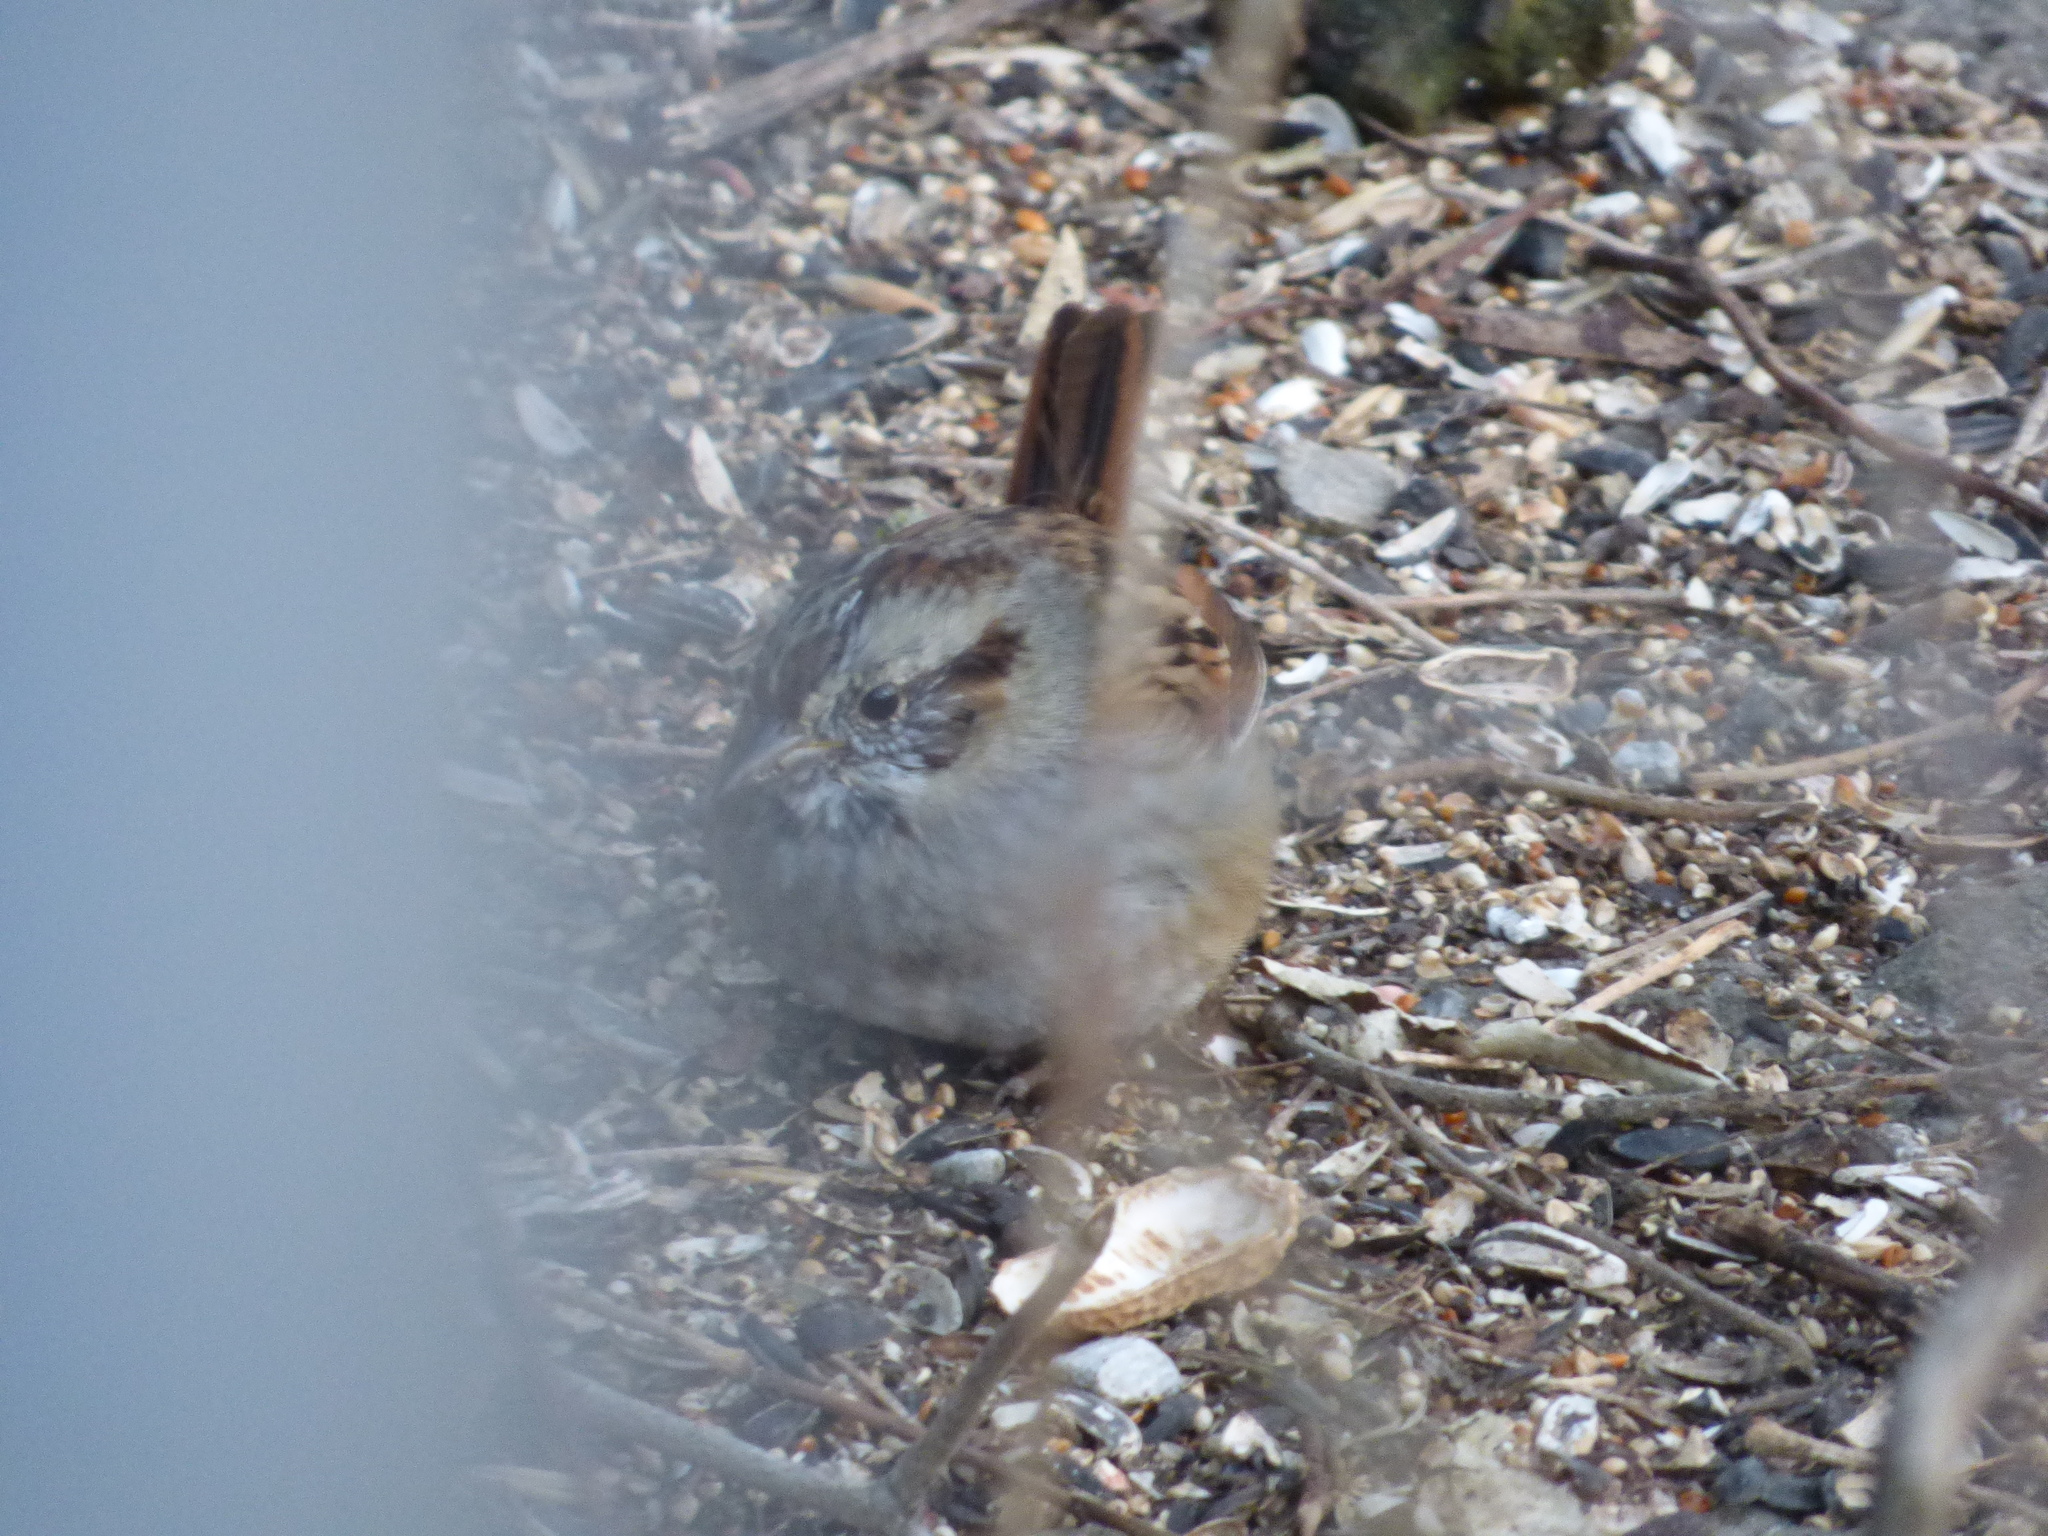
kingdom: Animalia
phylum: Chordata
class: Aves
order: Passeriformes
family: Passerellidae
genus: Melospiza
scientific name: Melospiza georgiana
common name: Swamp sparrow
